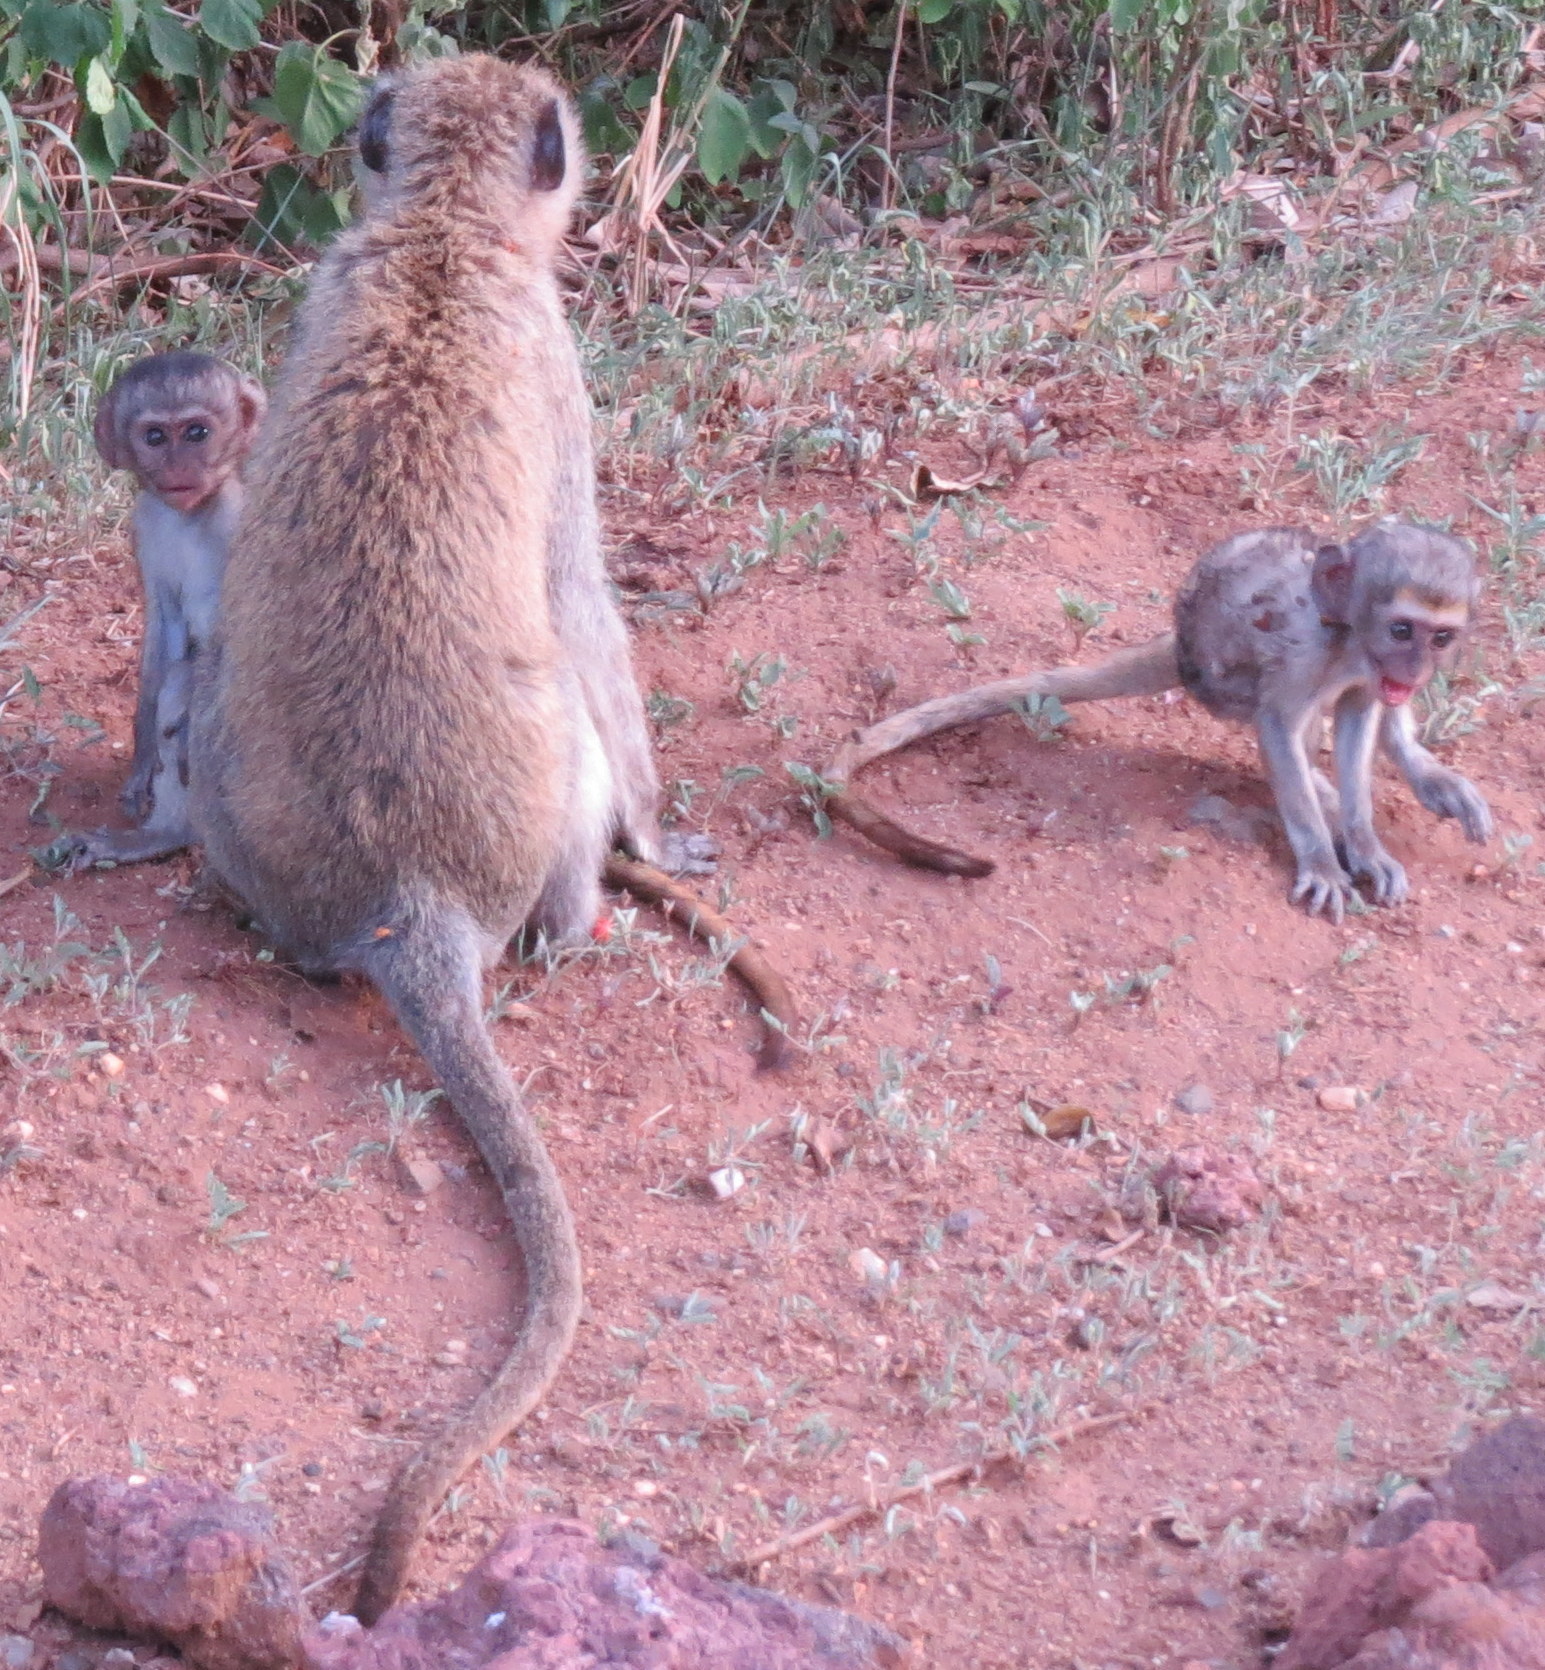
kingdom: Animalia
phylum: Chordata
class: Mammalia
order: Primates
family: Cercopithecidae
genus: Chlorocebus
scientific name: Chlorocebus pygerythrus
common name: Vervet monkey
